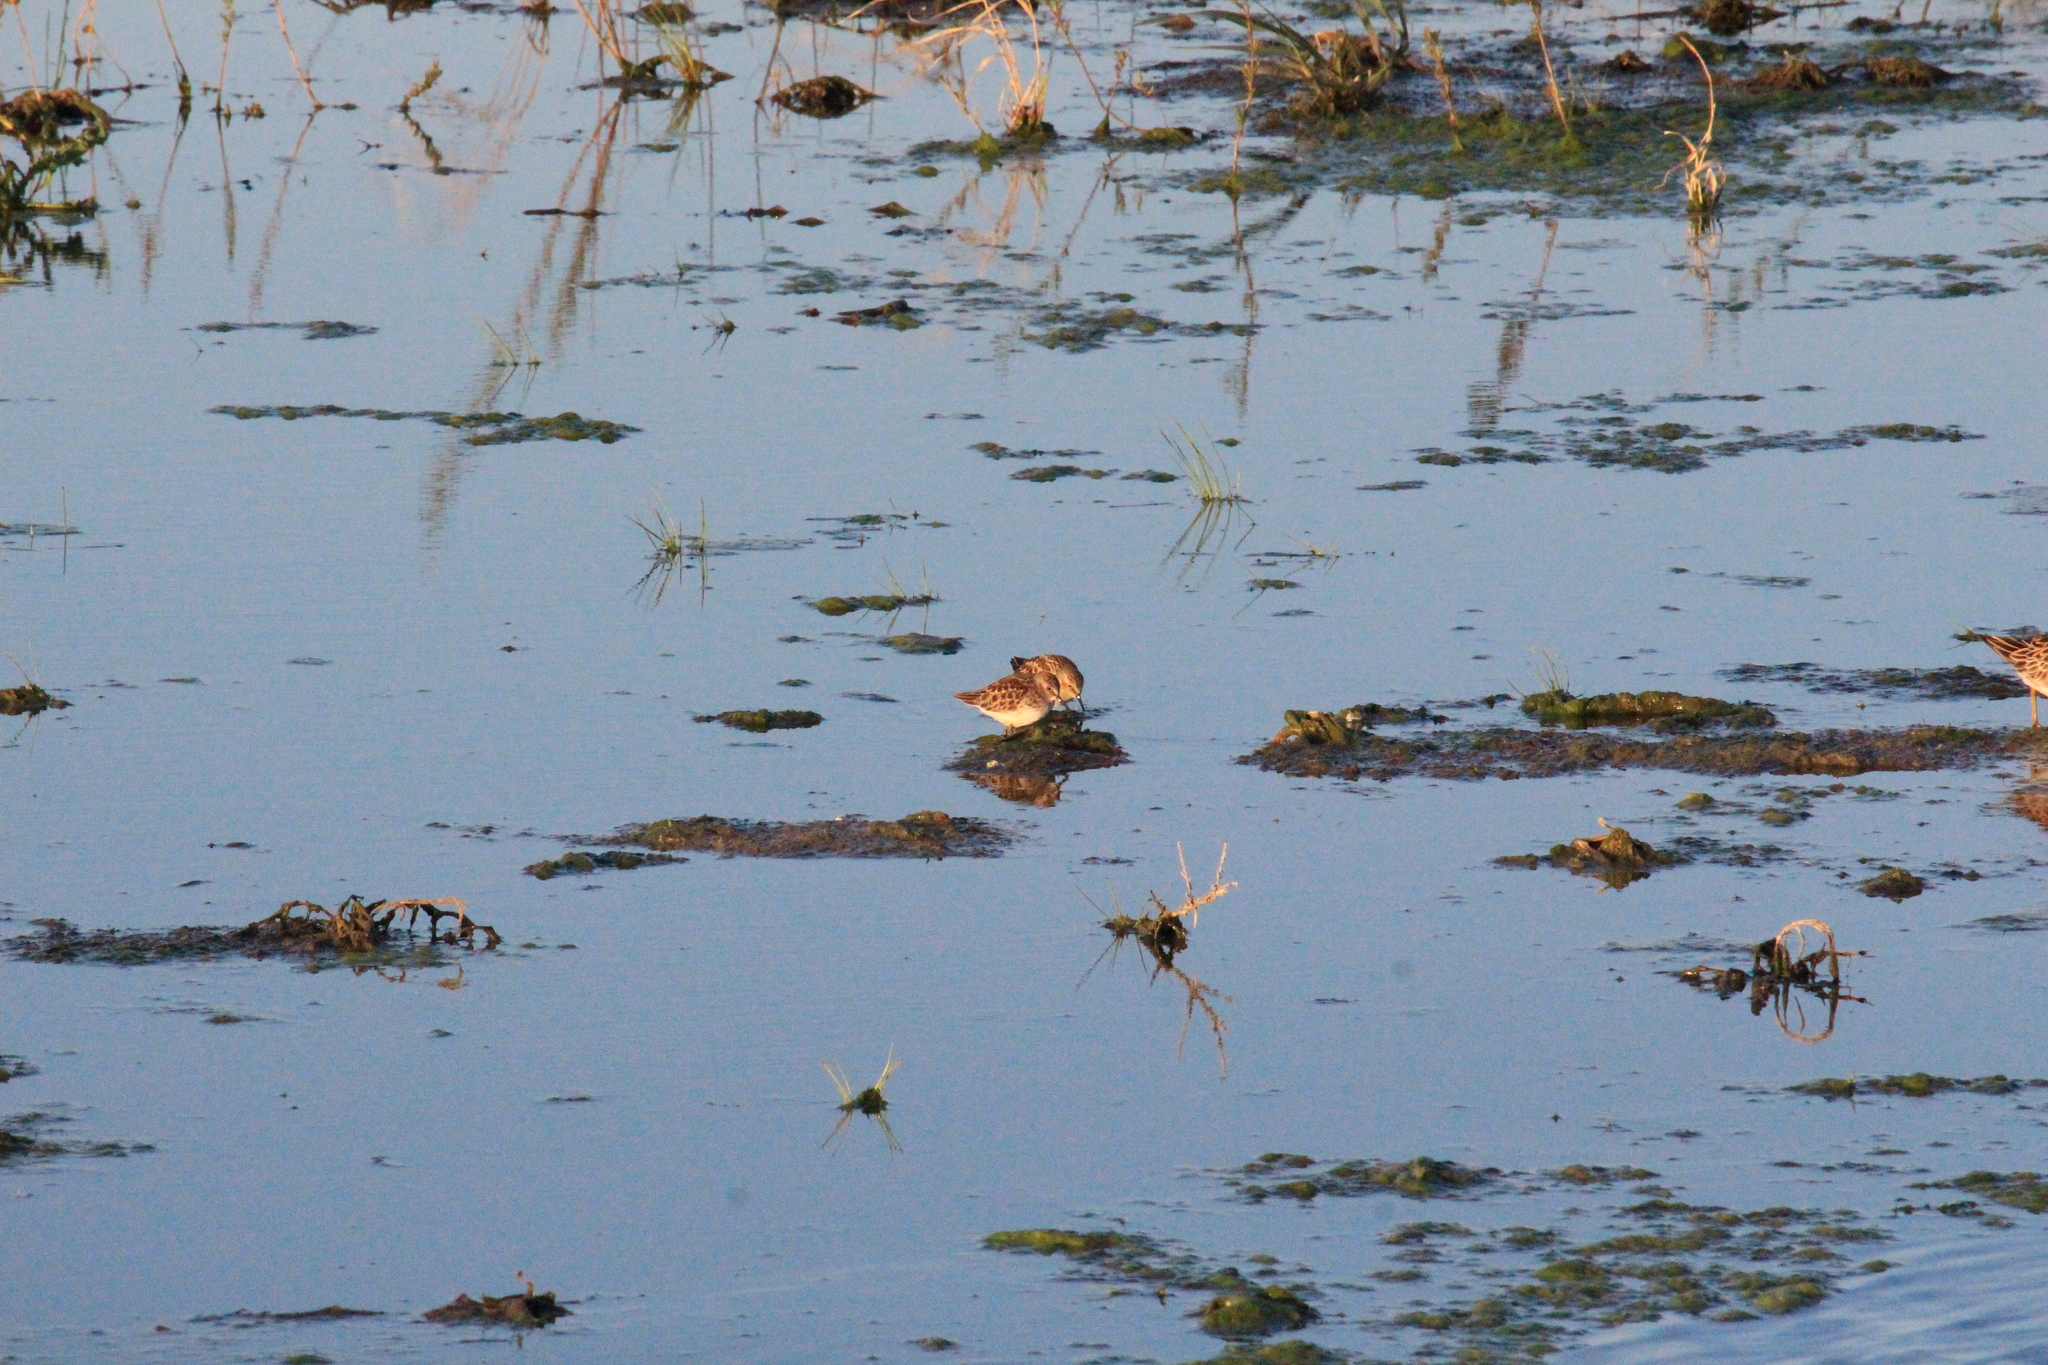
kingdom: Animalia
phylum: Chordata
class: Aves
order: Charadriiformes
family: Scolopacidae
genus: Calidris
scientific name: Calidris minutilla
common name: Least sandpiper
